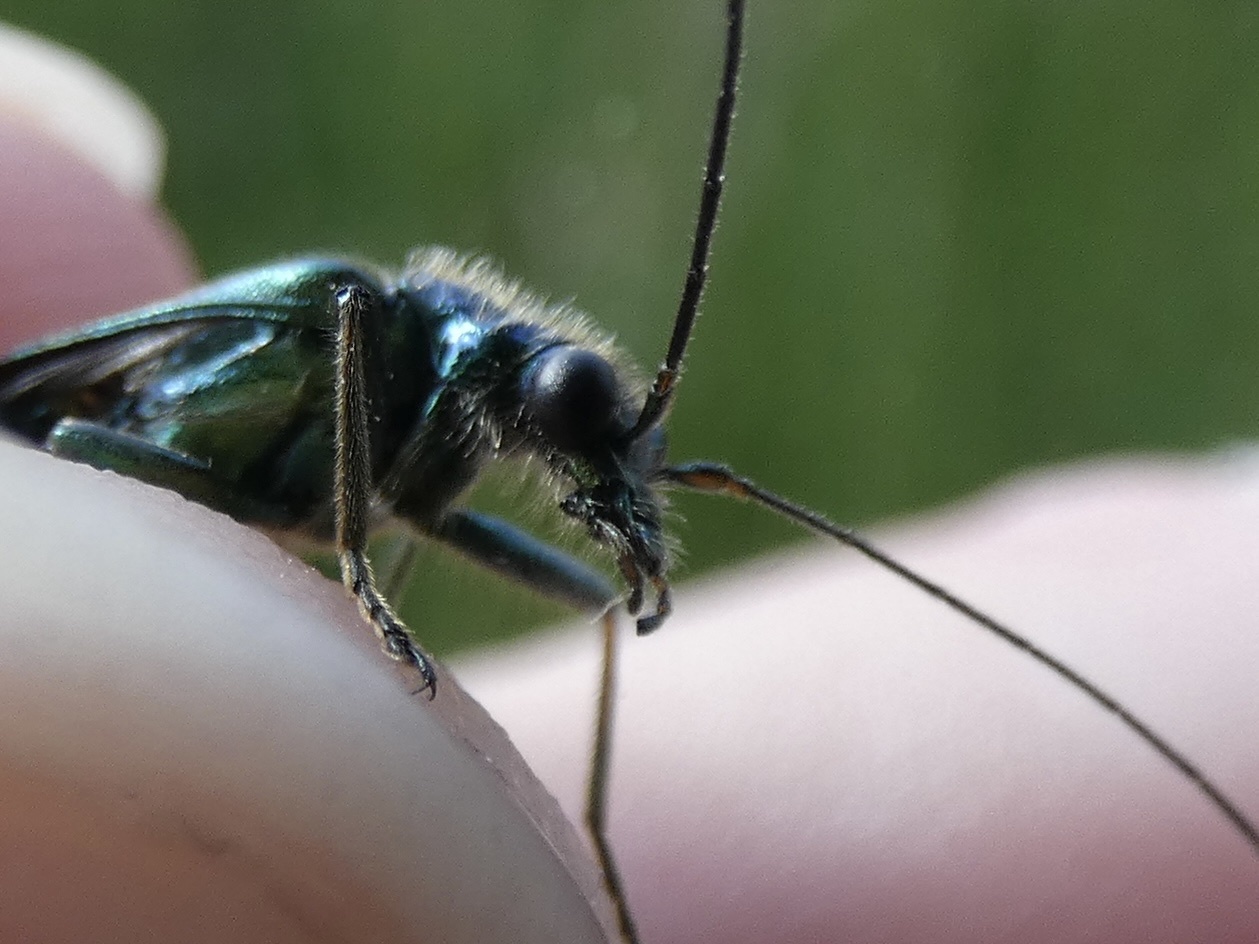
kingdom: Animalia
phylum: Arthropoda
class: Insecta
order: Coleoptera
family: Oedemeridae
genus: Oedemera
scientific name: Oedemera nobilis
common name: Swollen-thighed beetle
